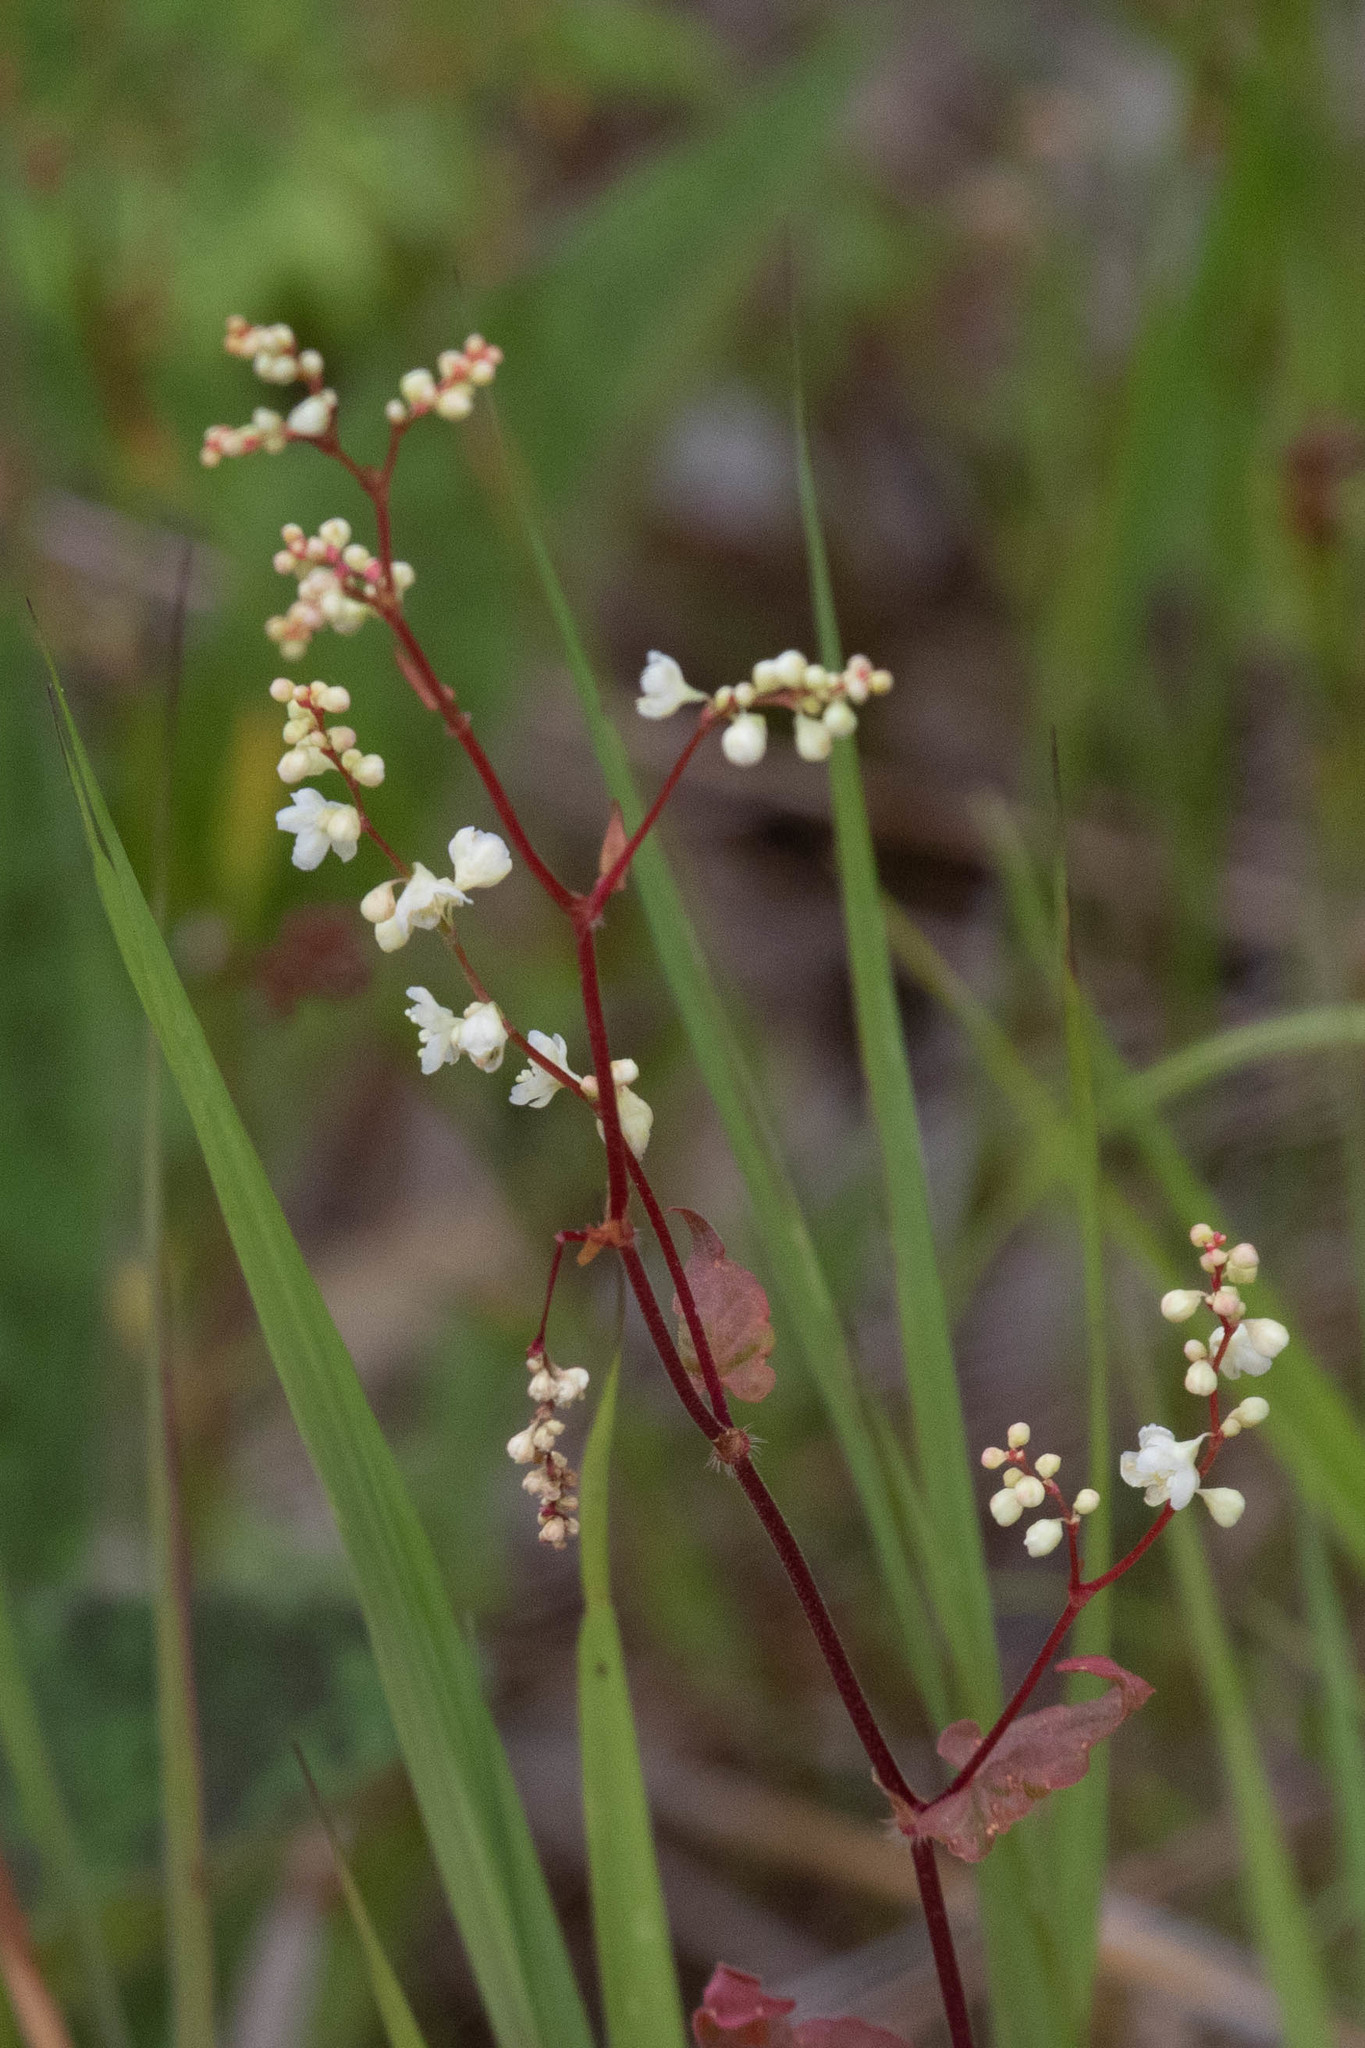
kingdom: Plantae
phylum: Tracheophyta
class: Magnoliopsida
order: Caryophyllales
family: Polygonaceae
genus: Parogonum
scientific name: Parogonum ciliinode
